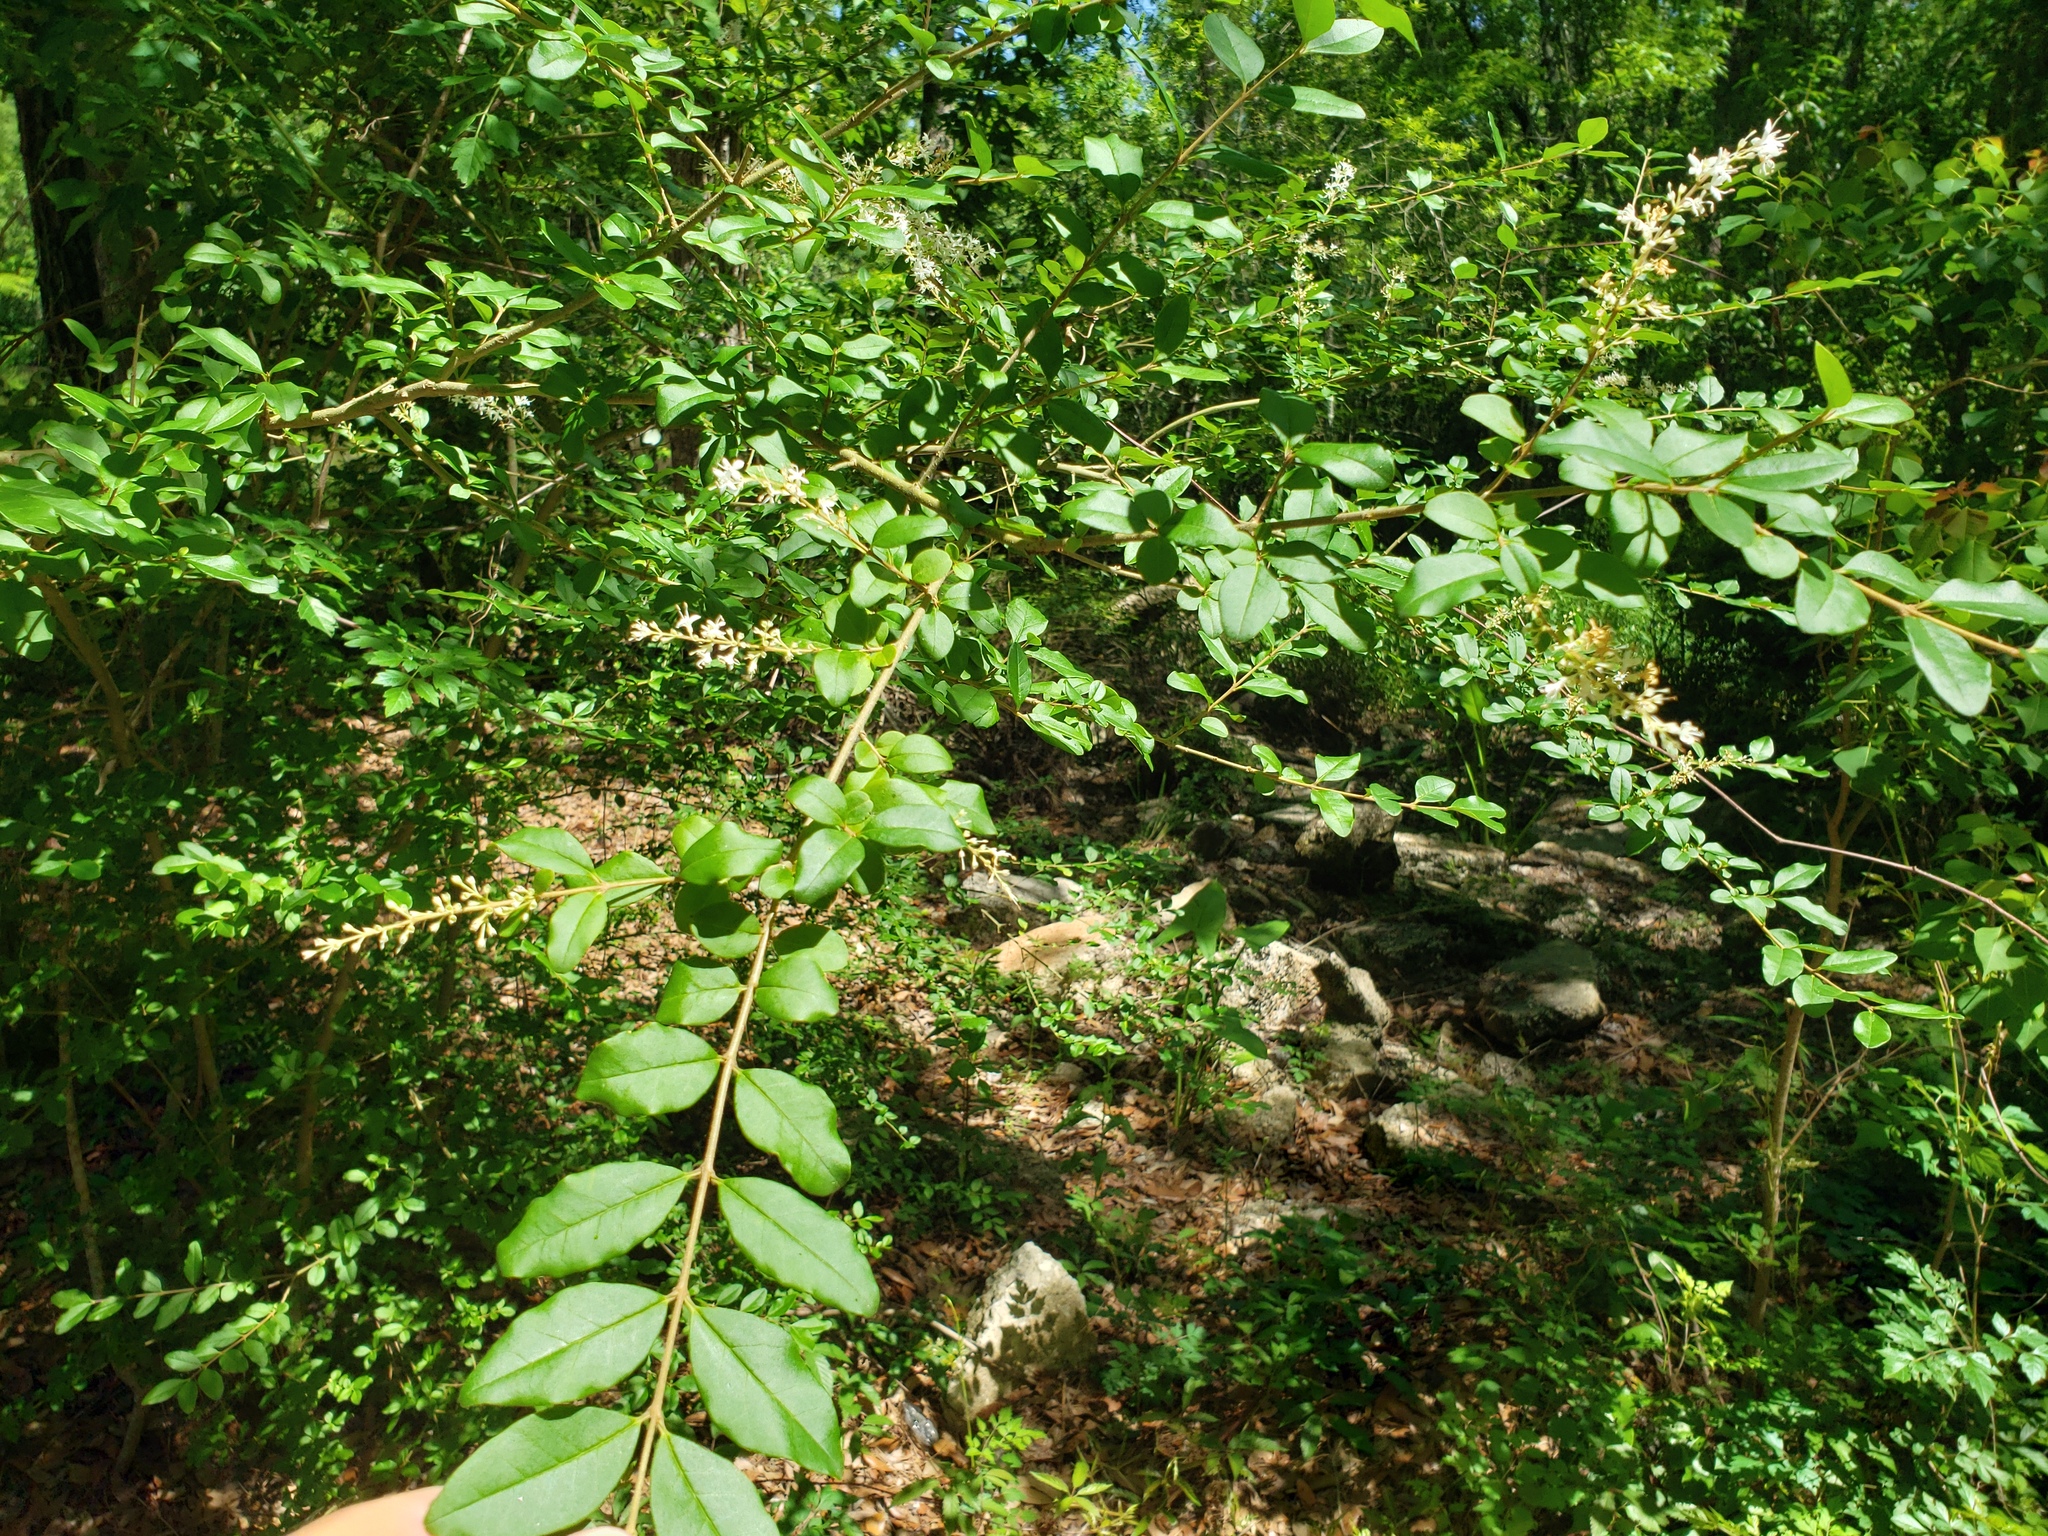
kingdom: Plantae
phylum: Tracheophyta
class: Magnoliopsida
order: Lamiales
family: Oleaceae
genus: Ligustrum
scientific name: Ligustrum sinense
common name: Chinese privet
